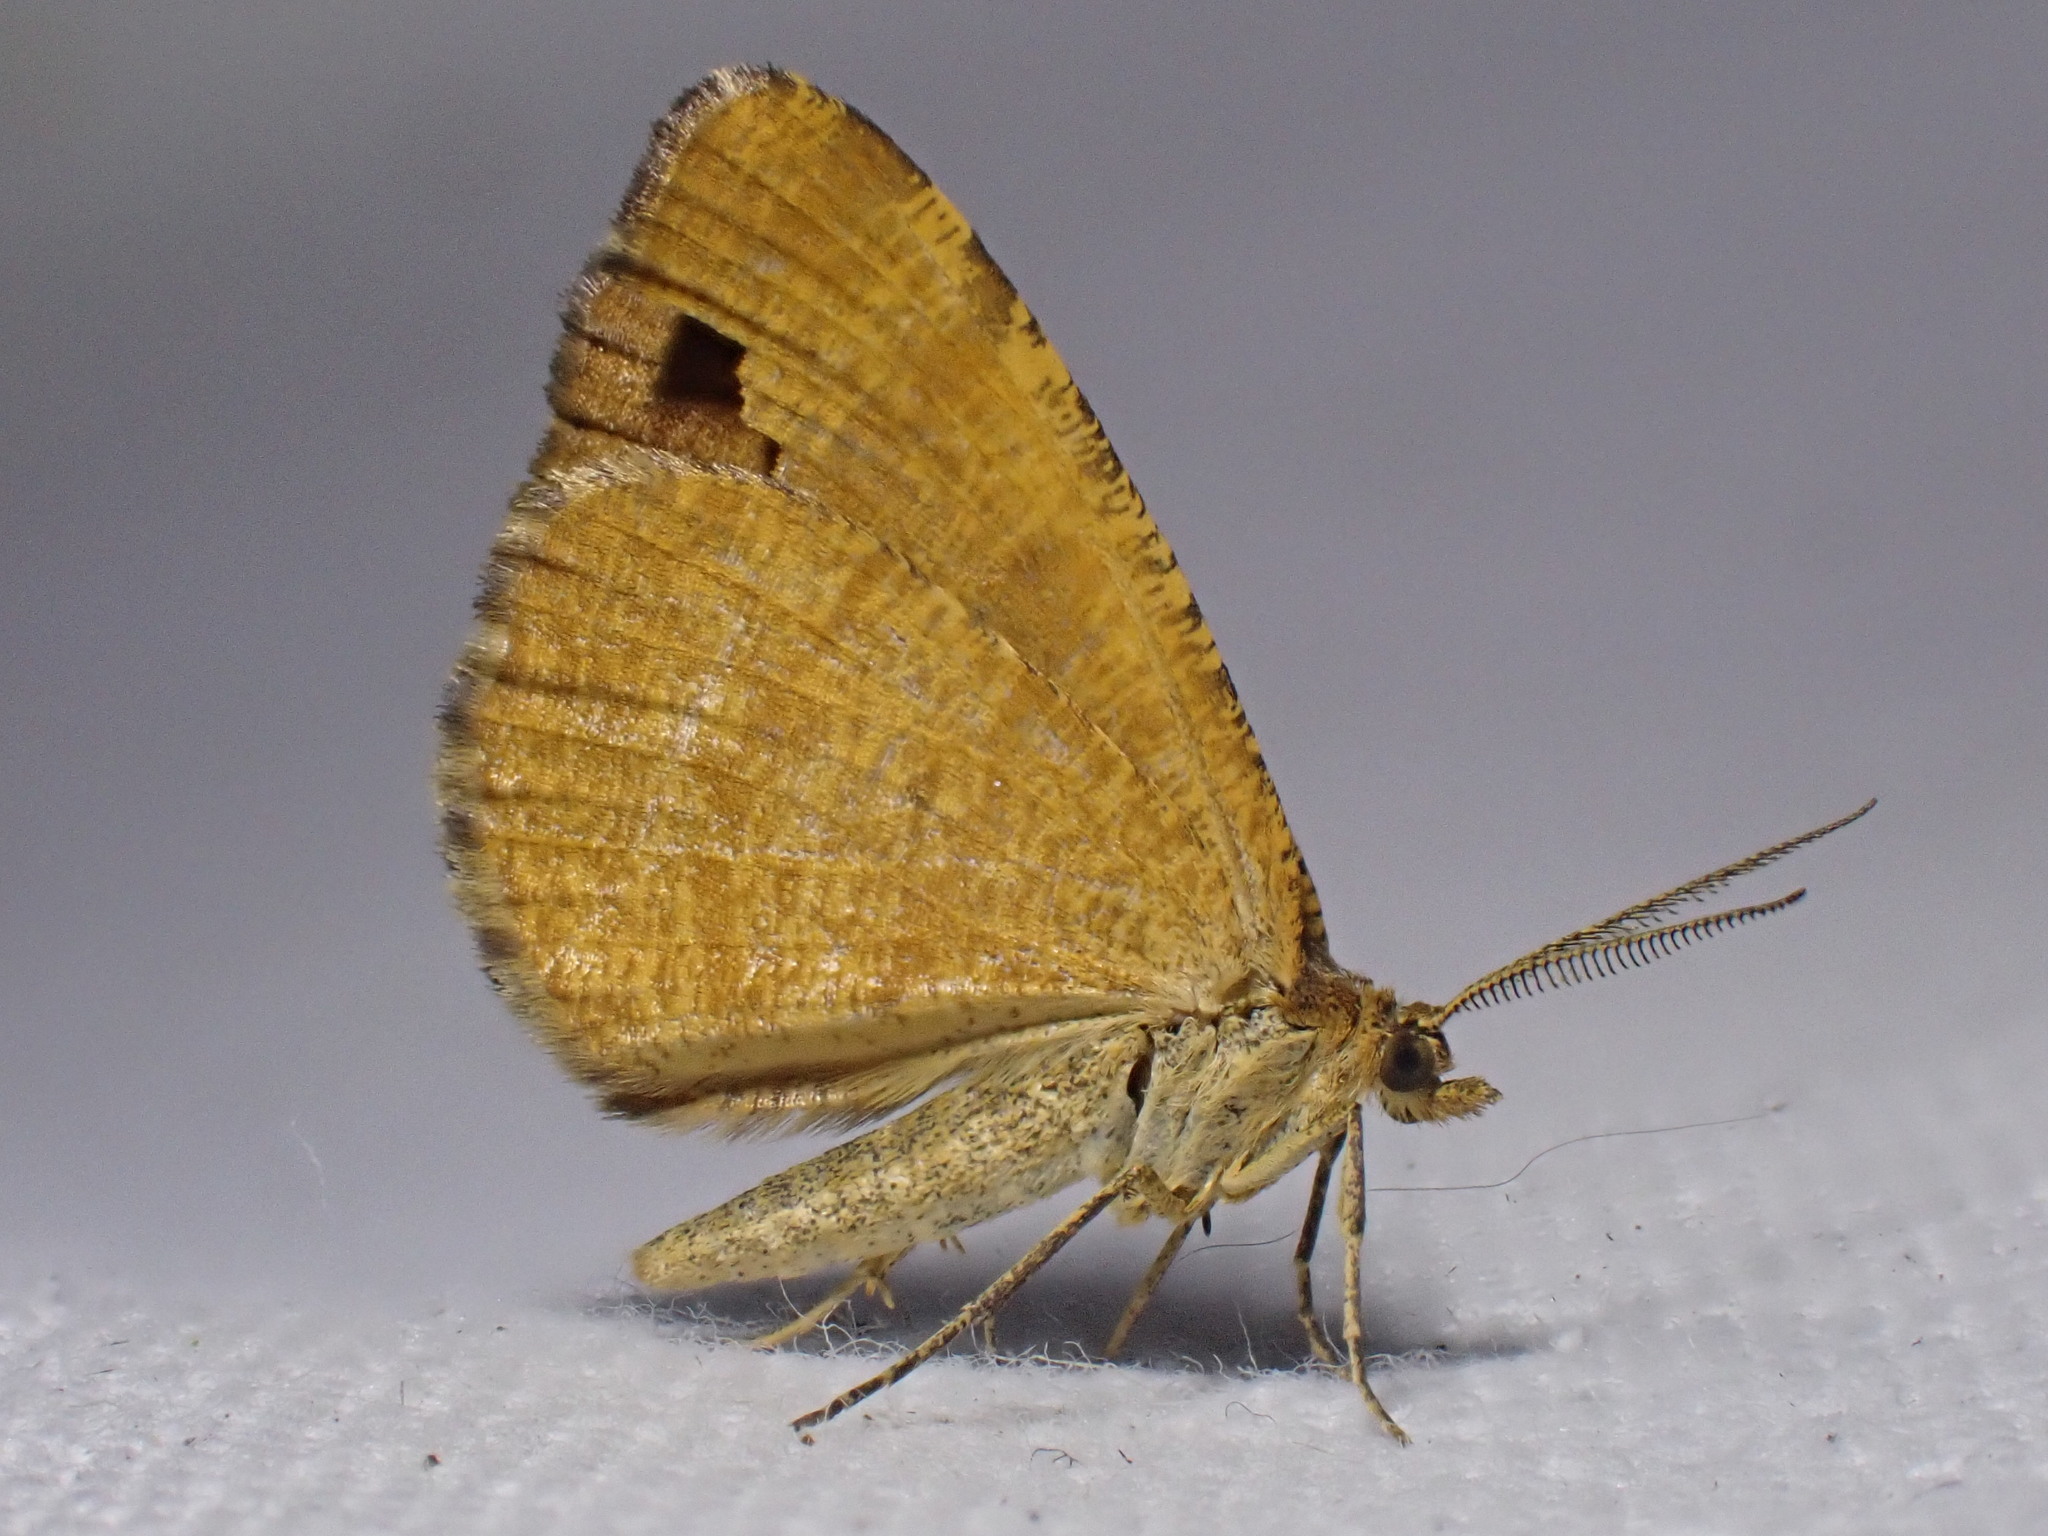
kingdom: Animalia
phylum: Arthropoda
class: Insecta
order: Lepidoptera
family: Geometridae
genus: Macaria
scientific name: Macaria brunneata
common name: Rannoch looper
